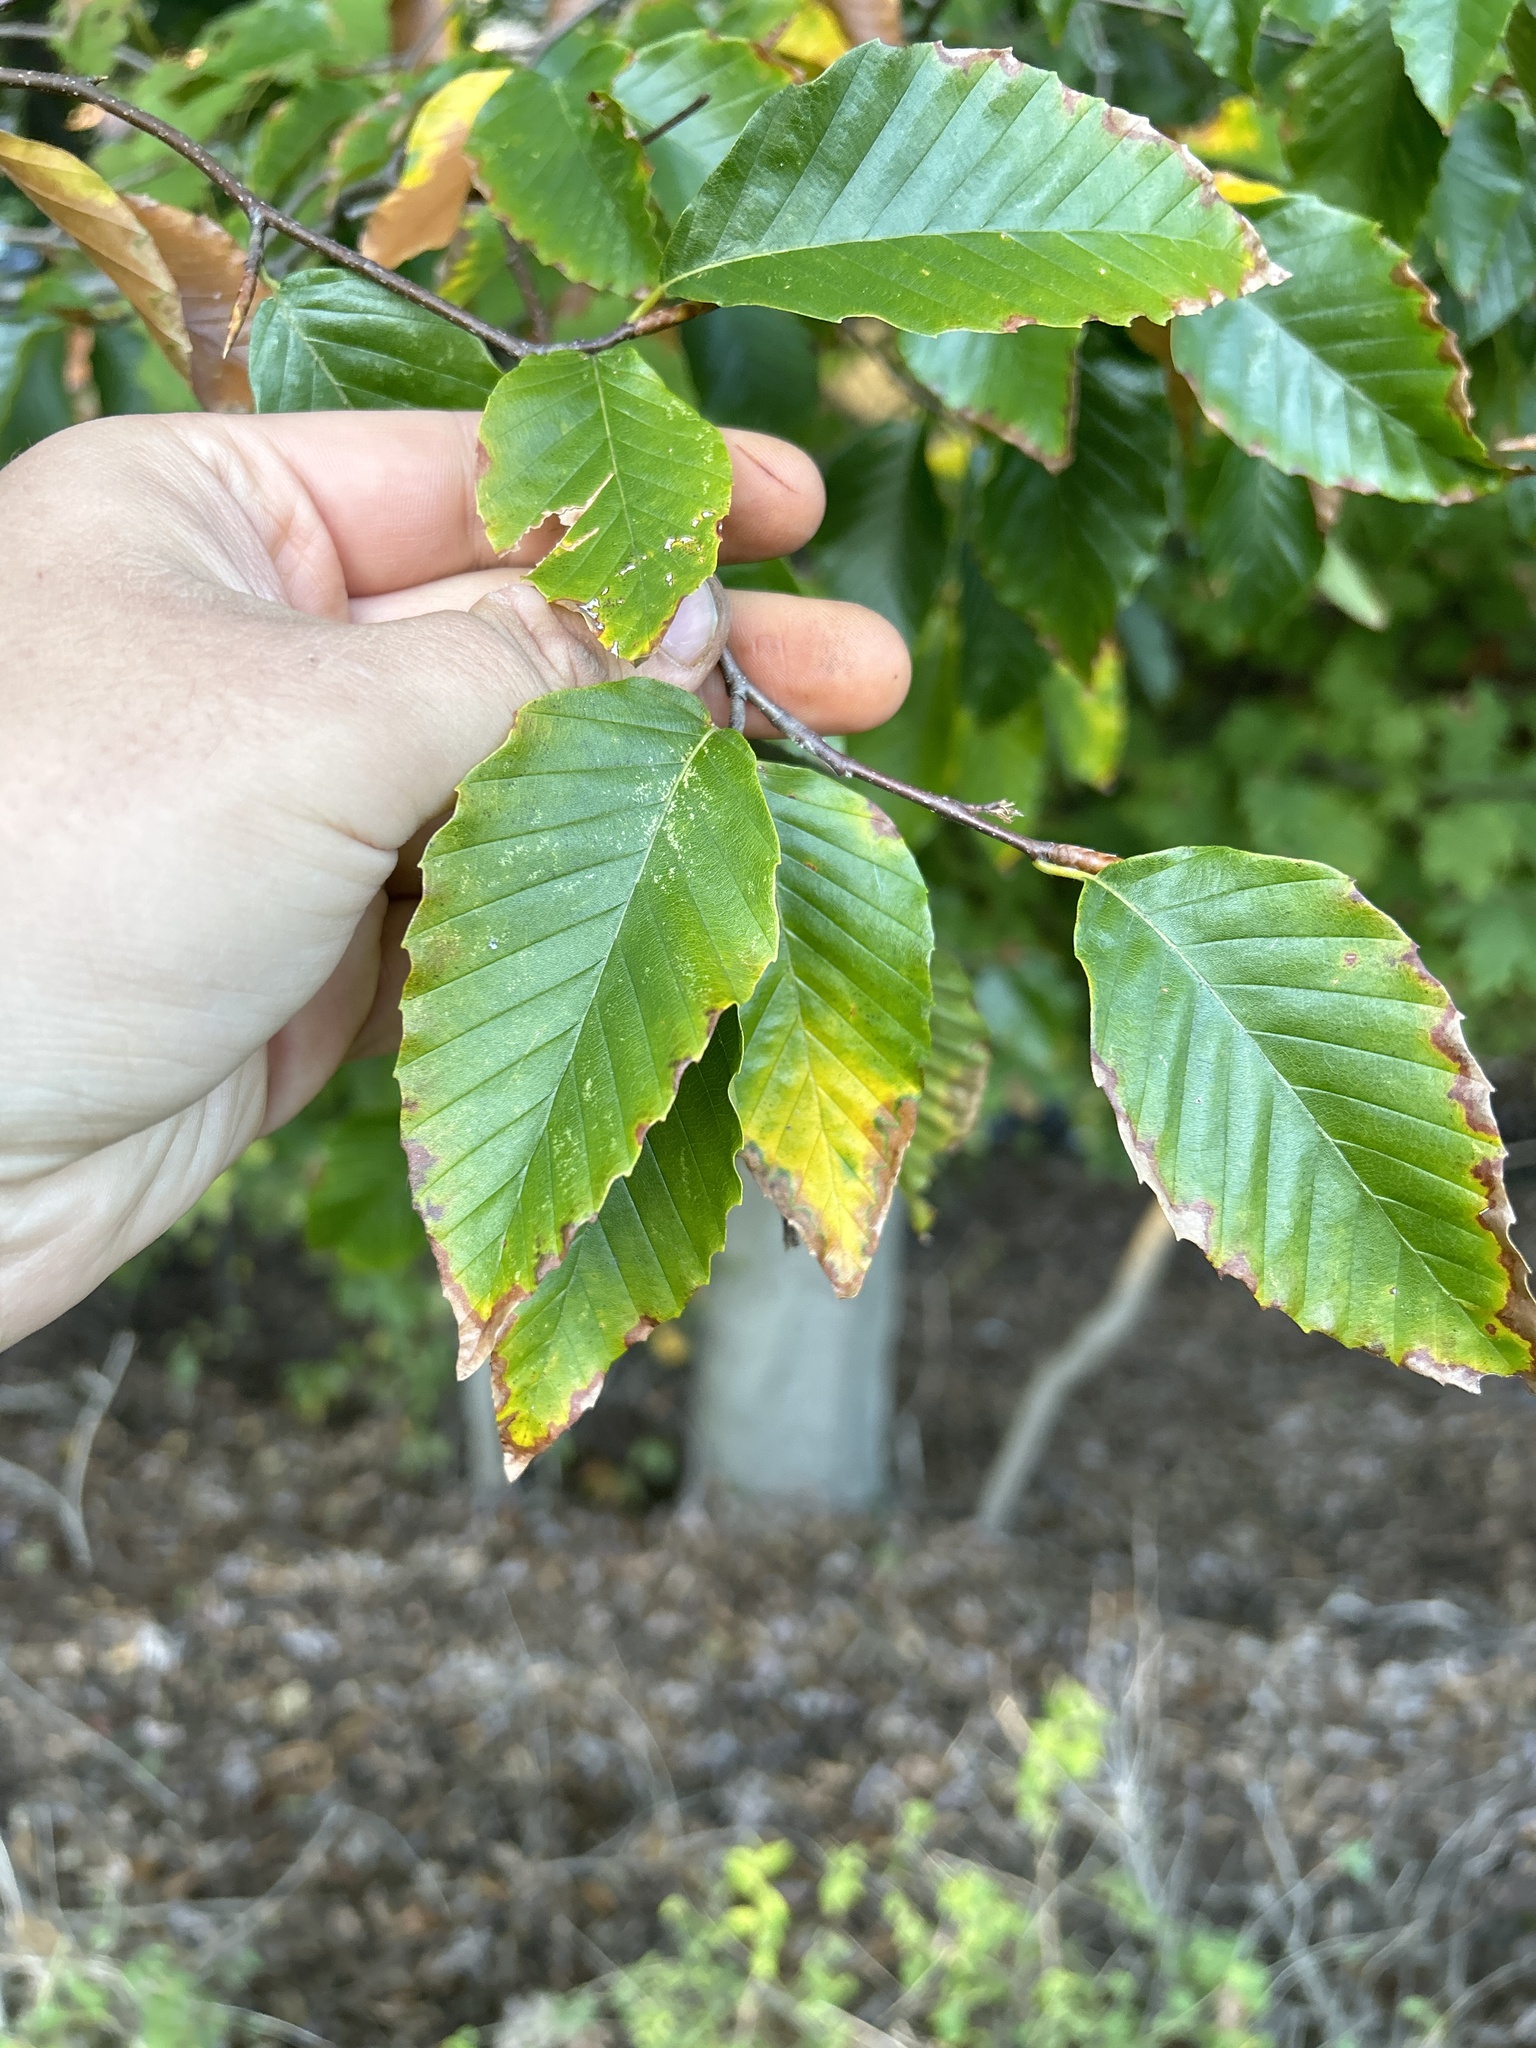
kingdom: Plantae
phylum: Tracheophyta
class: Magnoliopsida
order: Fagales
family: Fagaceae
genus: Fagus
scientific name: Fagus grandifolia
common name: American beech
